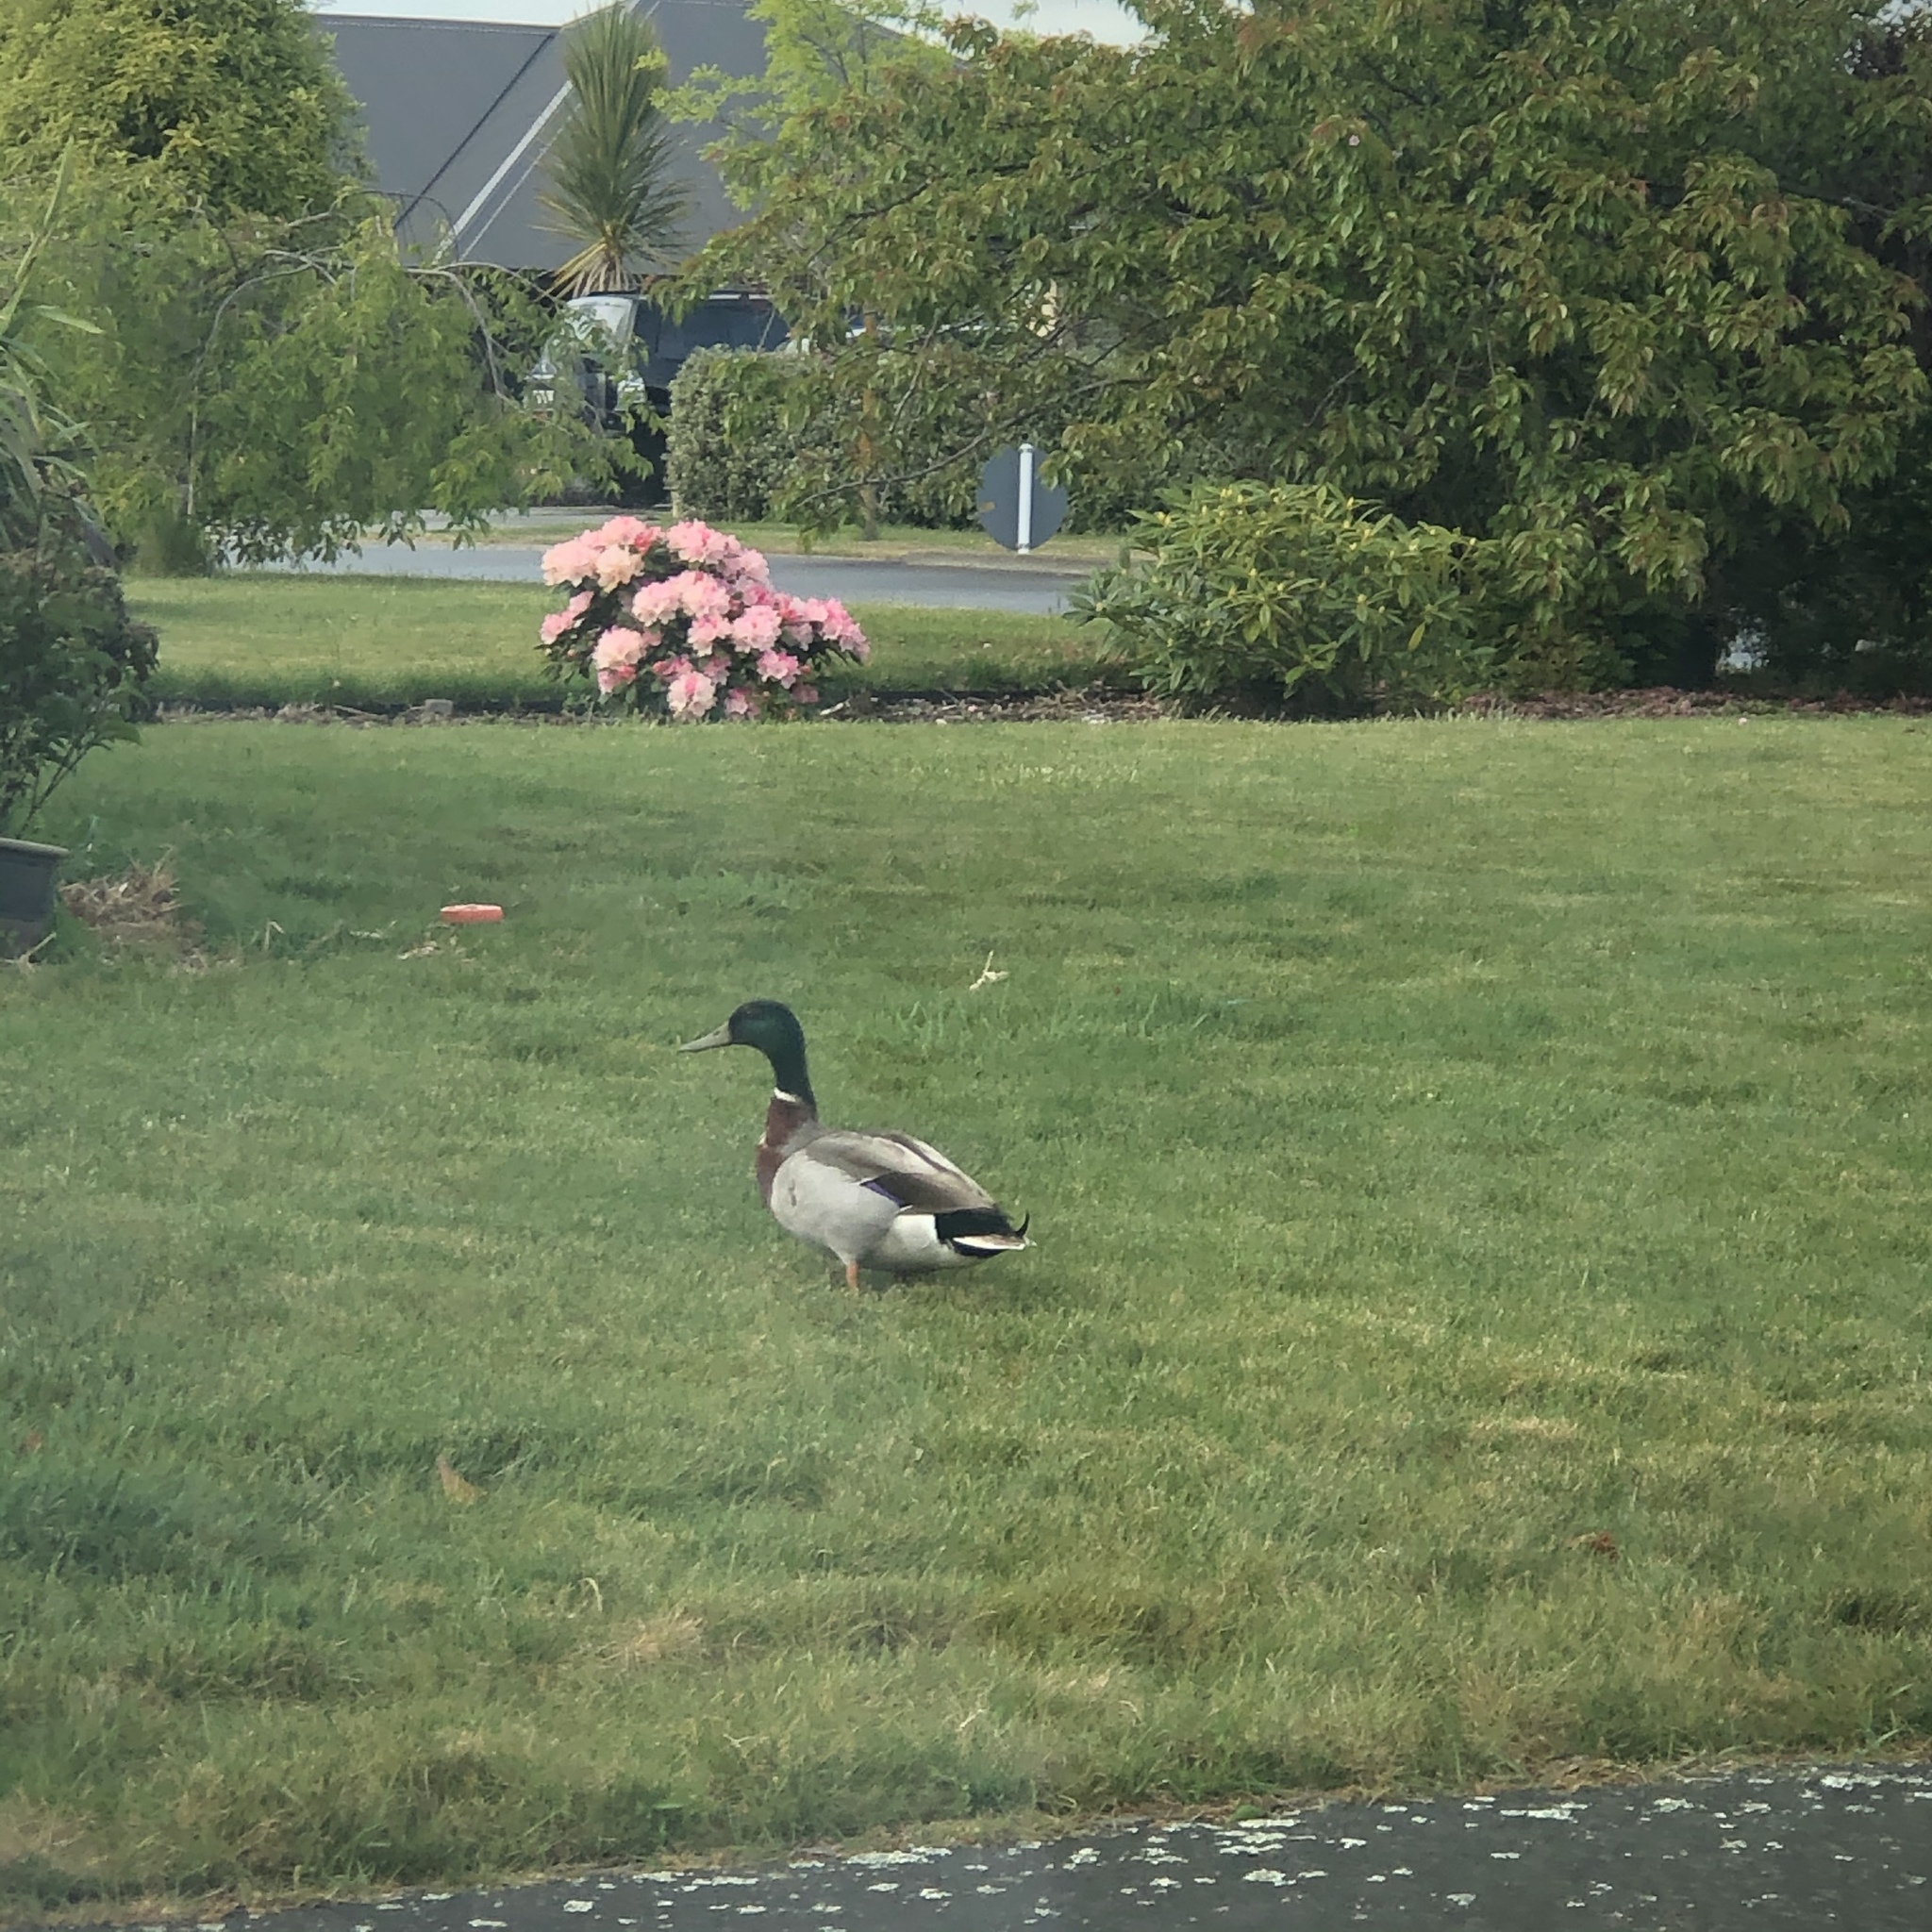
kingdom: Animalia
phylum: Chordata
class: Aves
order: Anseriformes
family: Anatidae
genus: Anas
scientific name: Anas platyrhynchos
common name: Mallard
